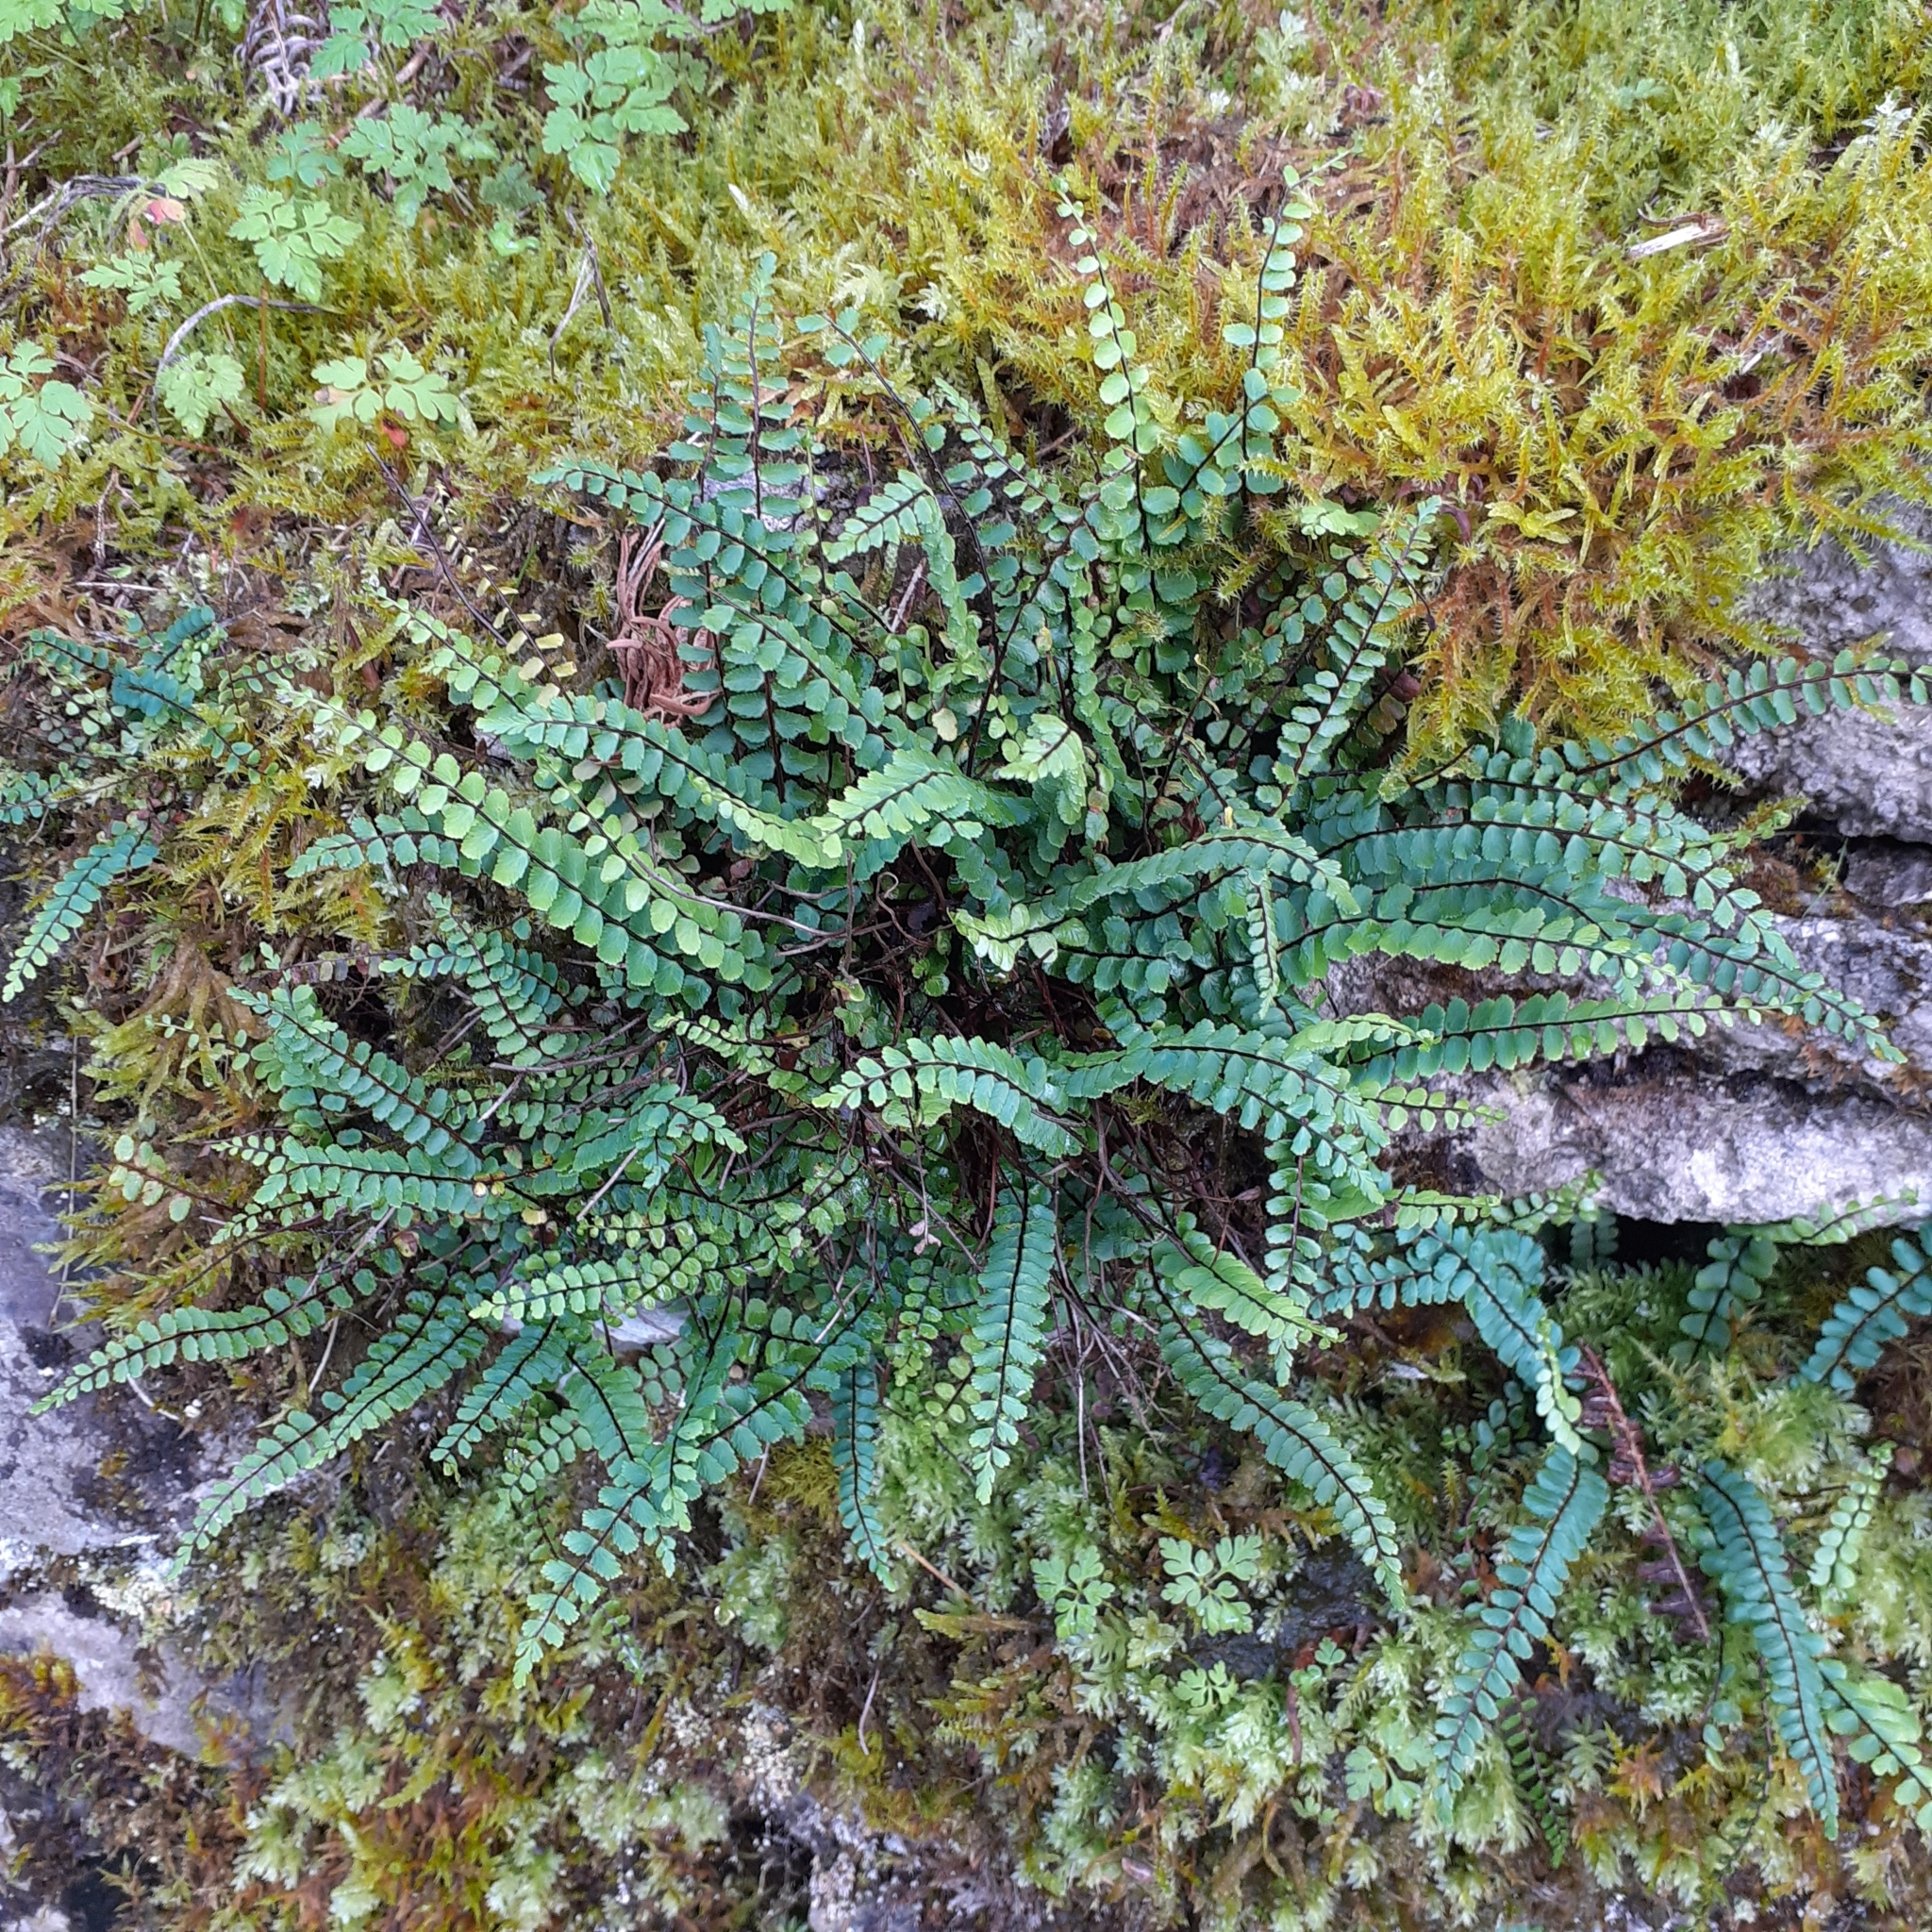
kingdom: Plantae
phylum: Tracheophyta
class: Polypodiopsida
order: Polypodiales
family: Aspleniaceae
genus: Asplenium
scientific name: Asplenium trichomanes
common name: Maidenhair spleenwort
